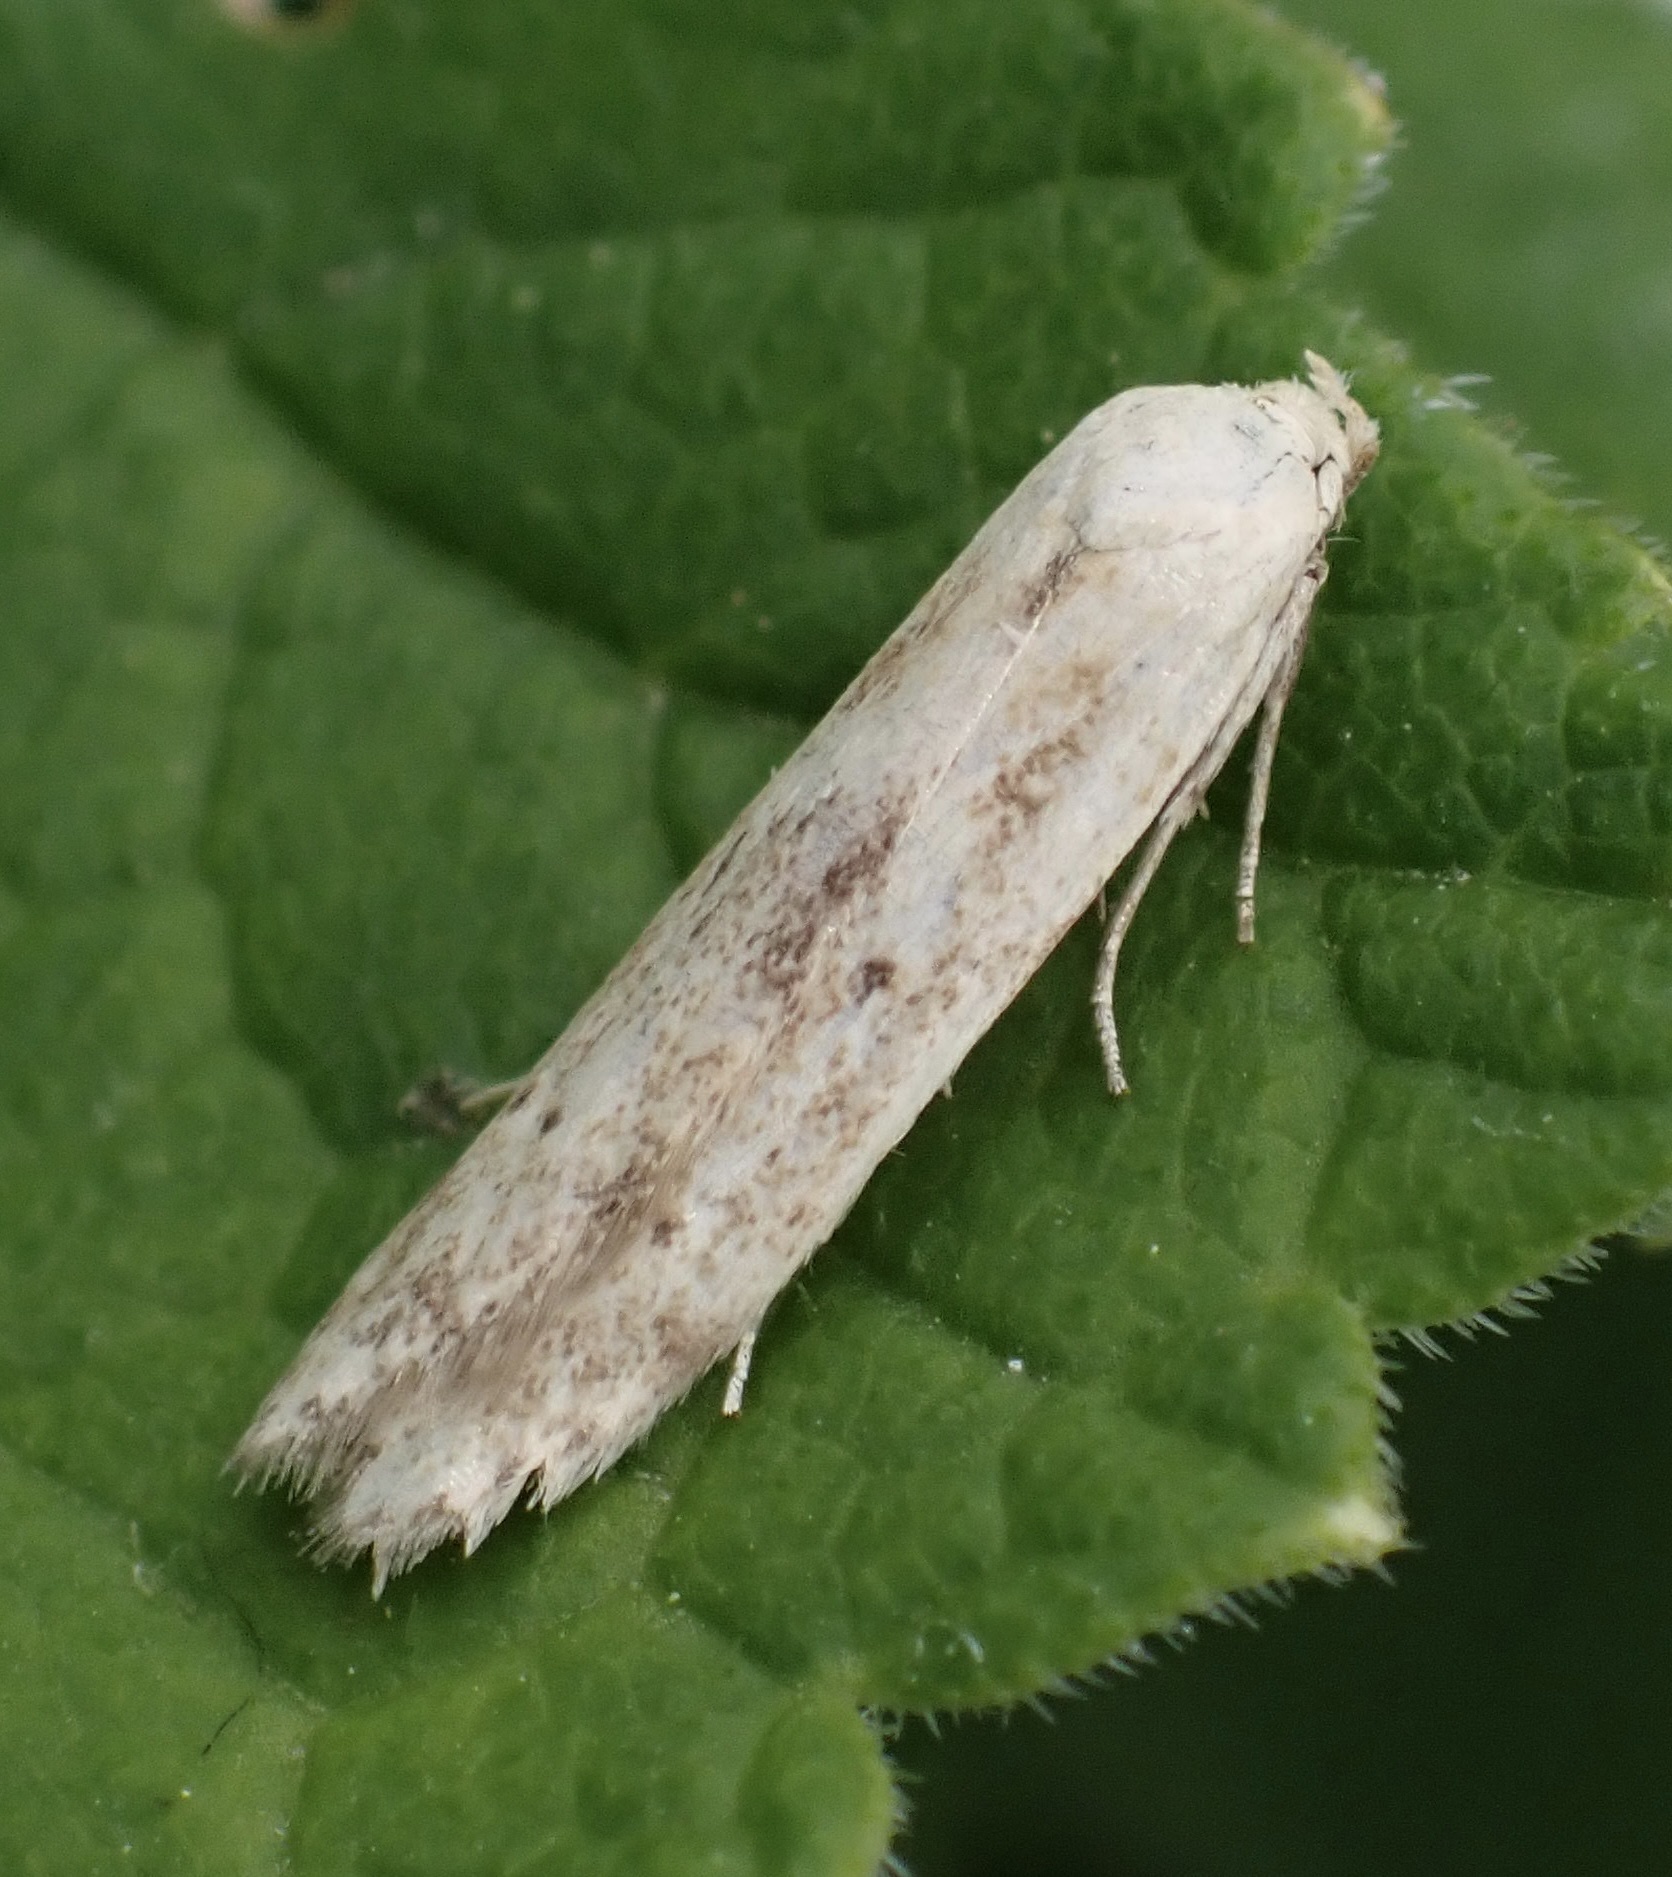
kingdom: Animalia
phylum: Arthropoda
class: Insecta
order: Lepidoptera
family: Blastobasidae
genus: Blastobasis
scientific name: Blastobasis lacticolella
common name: London dowd
